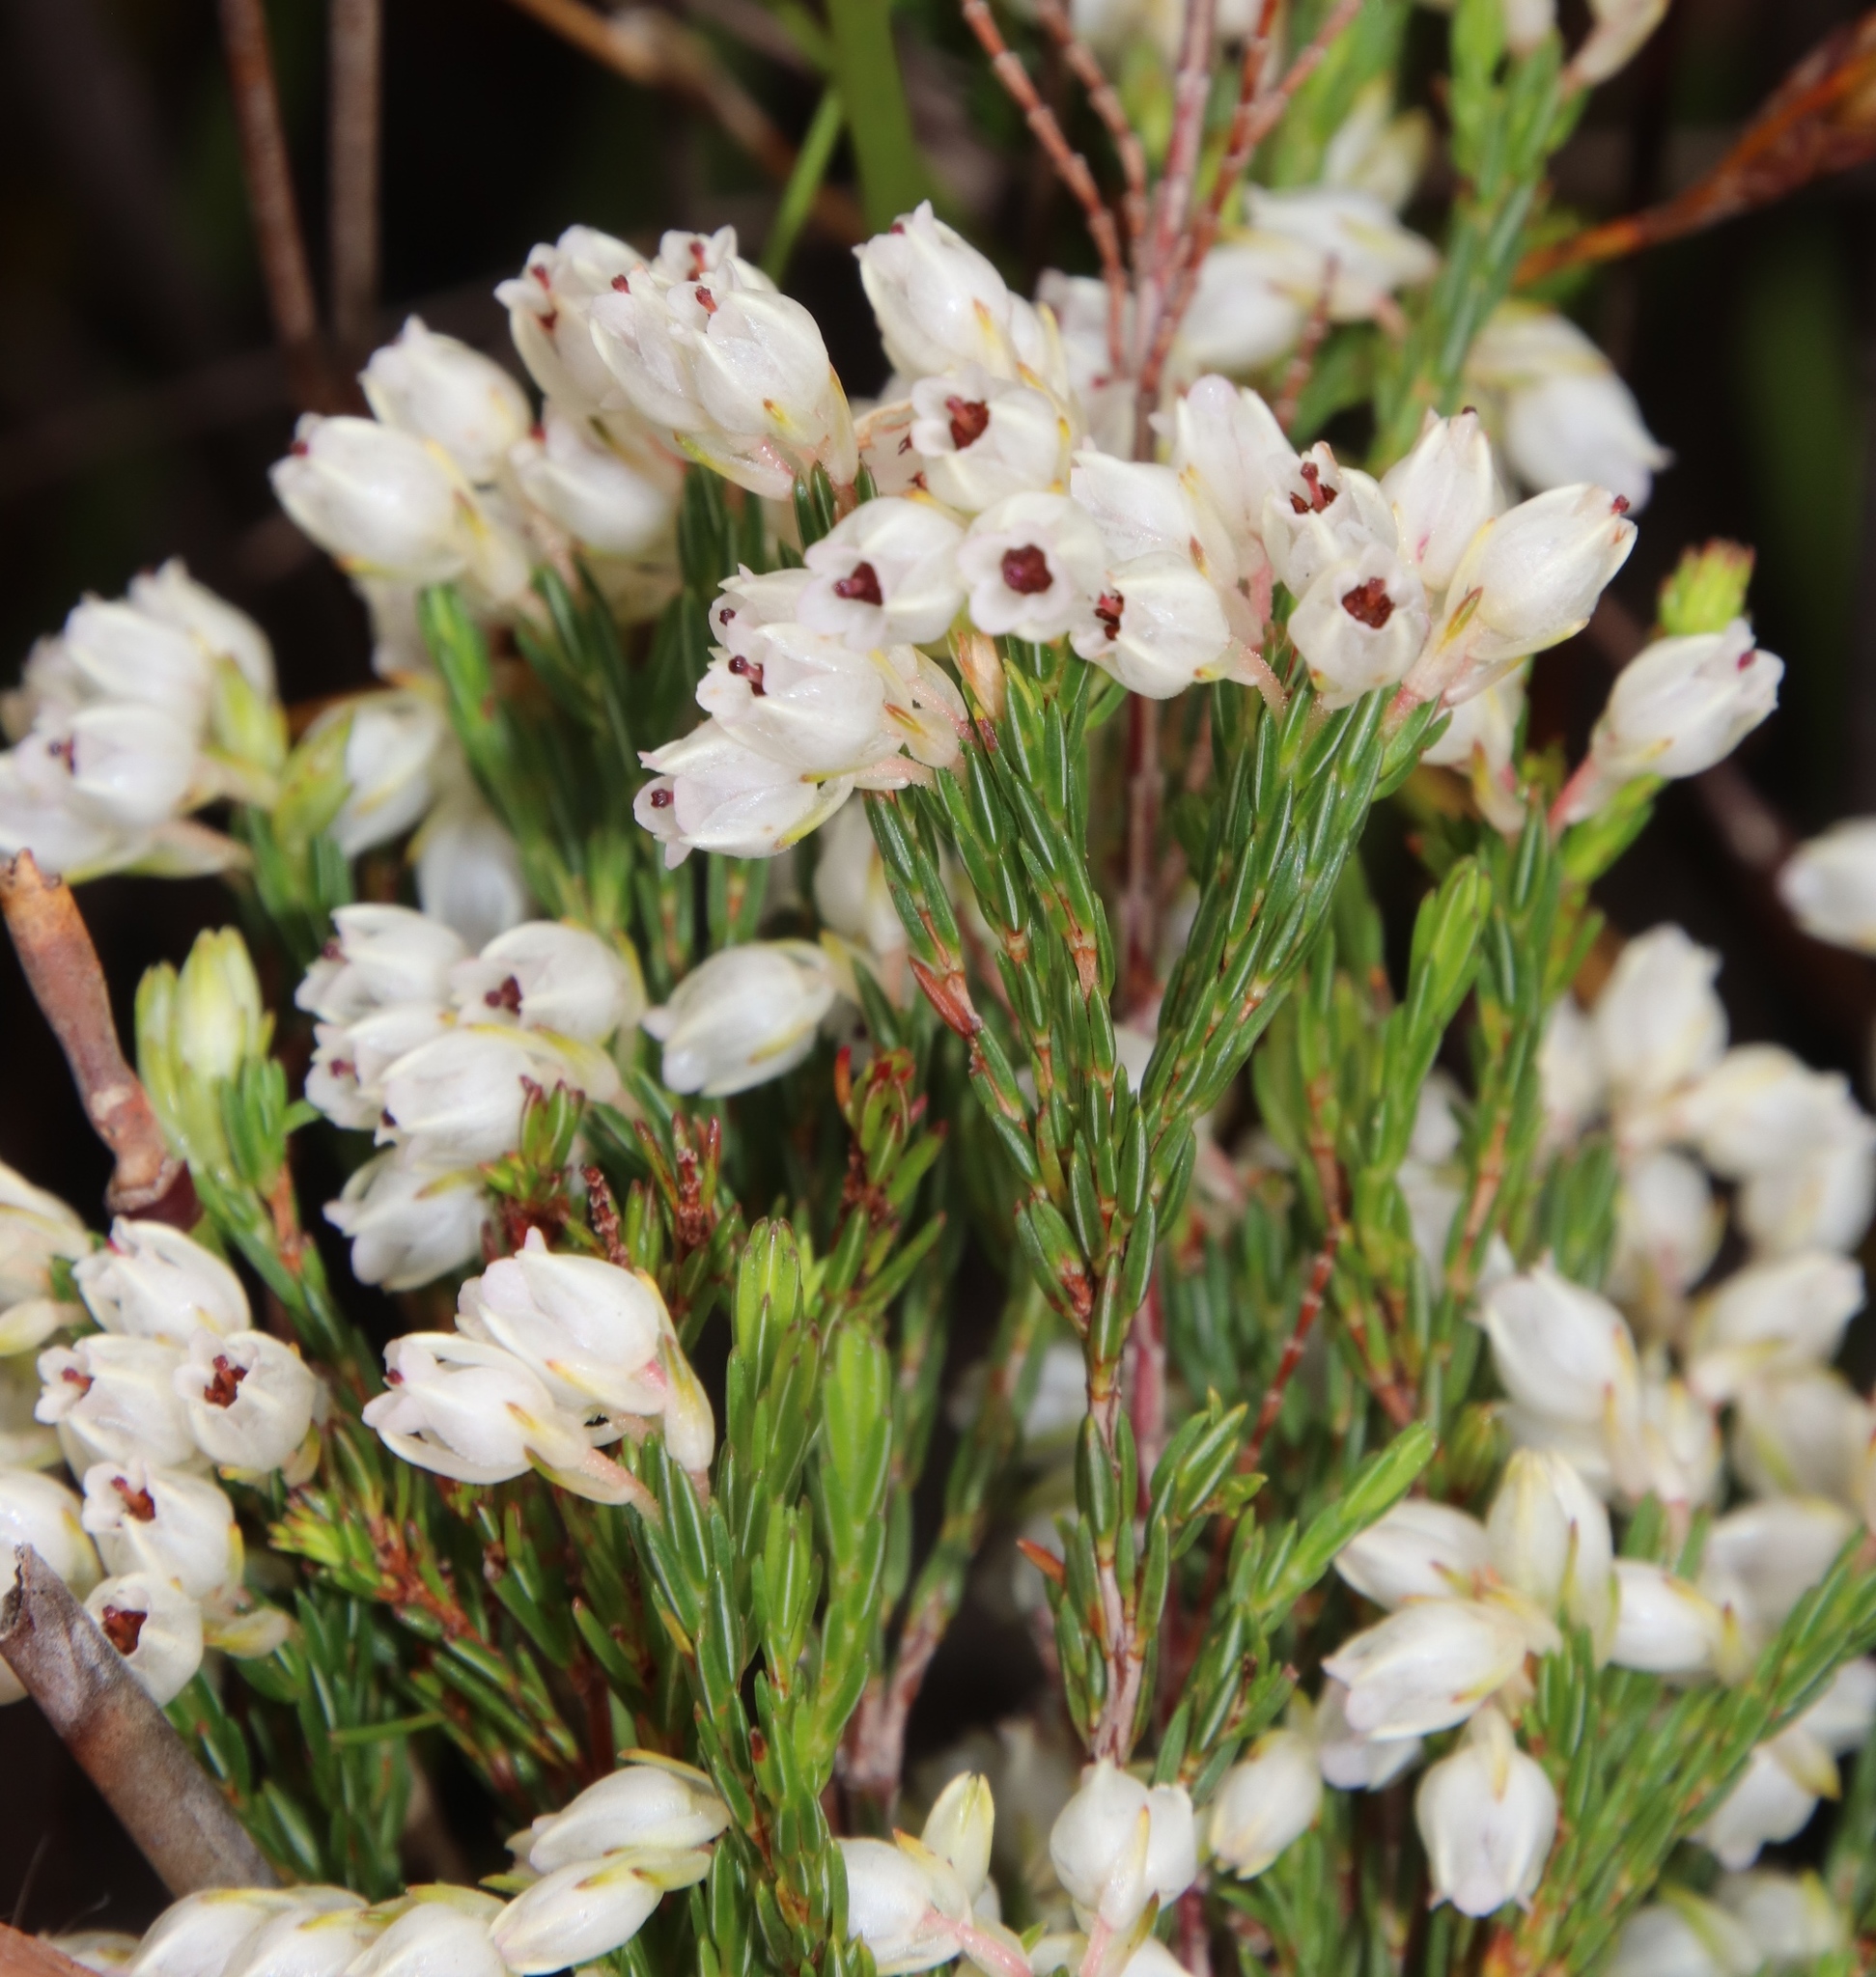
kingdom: Plantae
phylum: Tracheophyta
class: Magnoliopsida
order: Ericales
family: Ericaceae
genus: Erica
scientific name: Erica nivea
